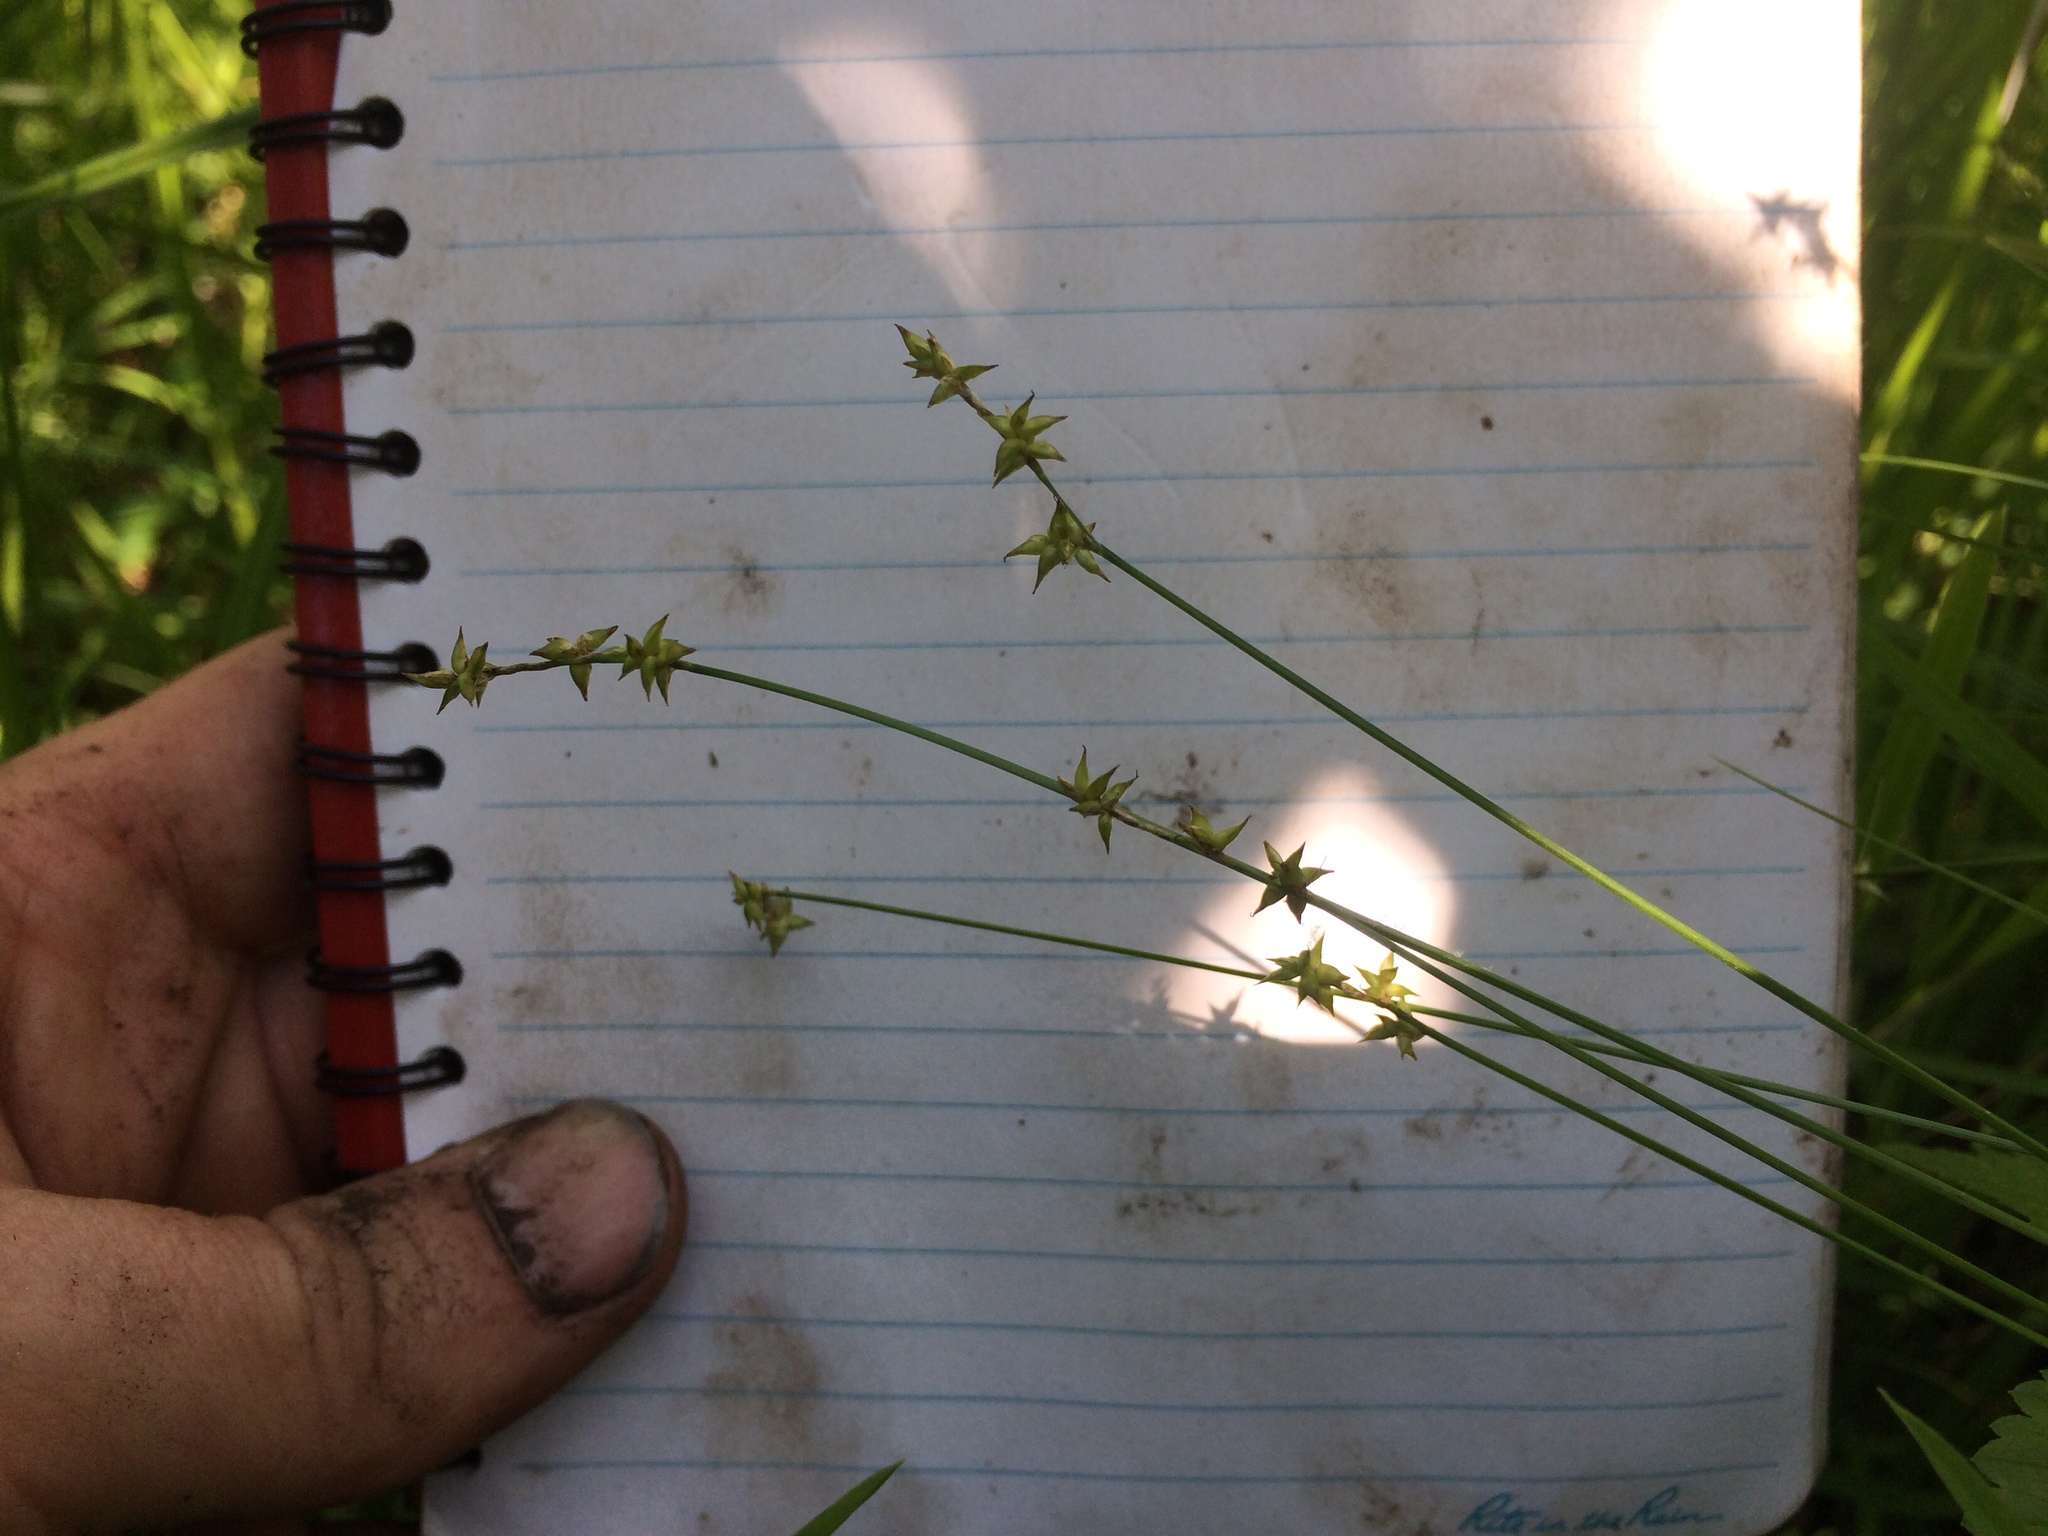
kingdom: Plantae
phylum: Tracheophyta
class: Liliopsida
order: Poales
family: Cyperaceae
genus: Carex
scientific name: Carex interior
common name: Inland sedge
